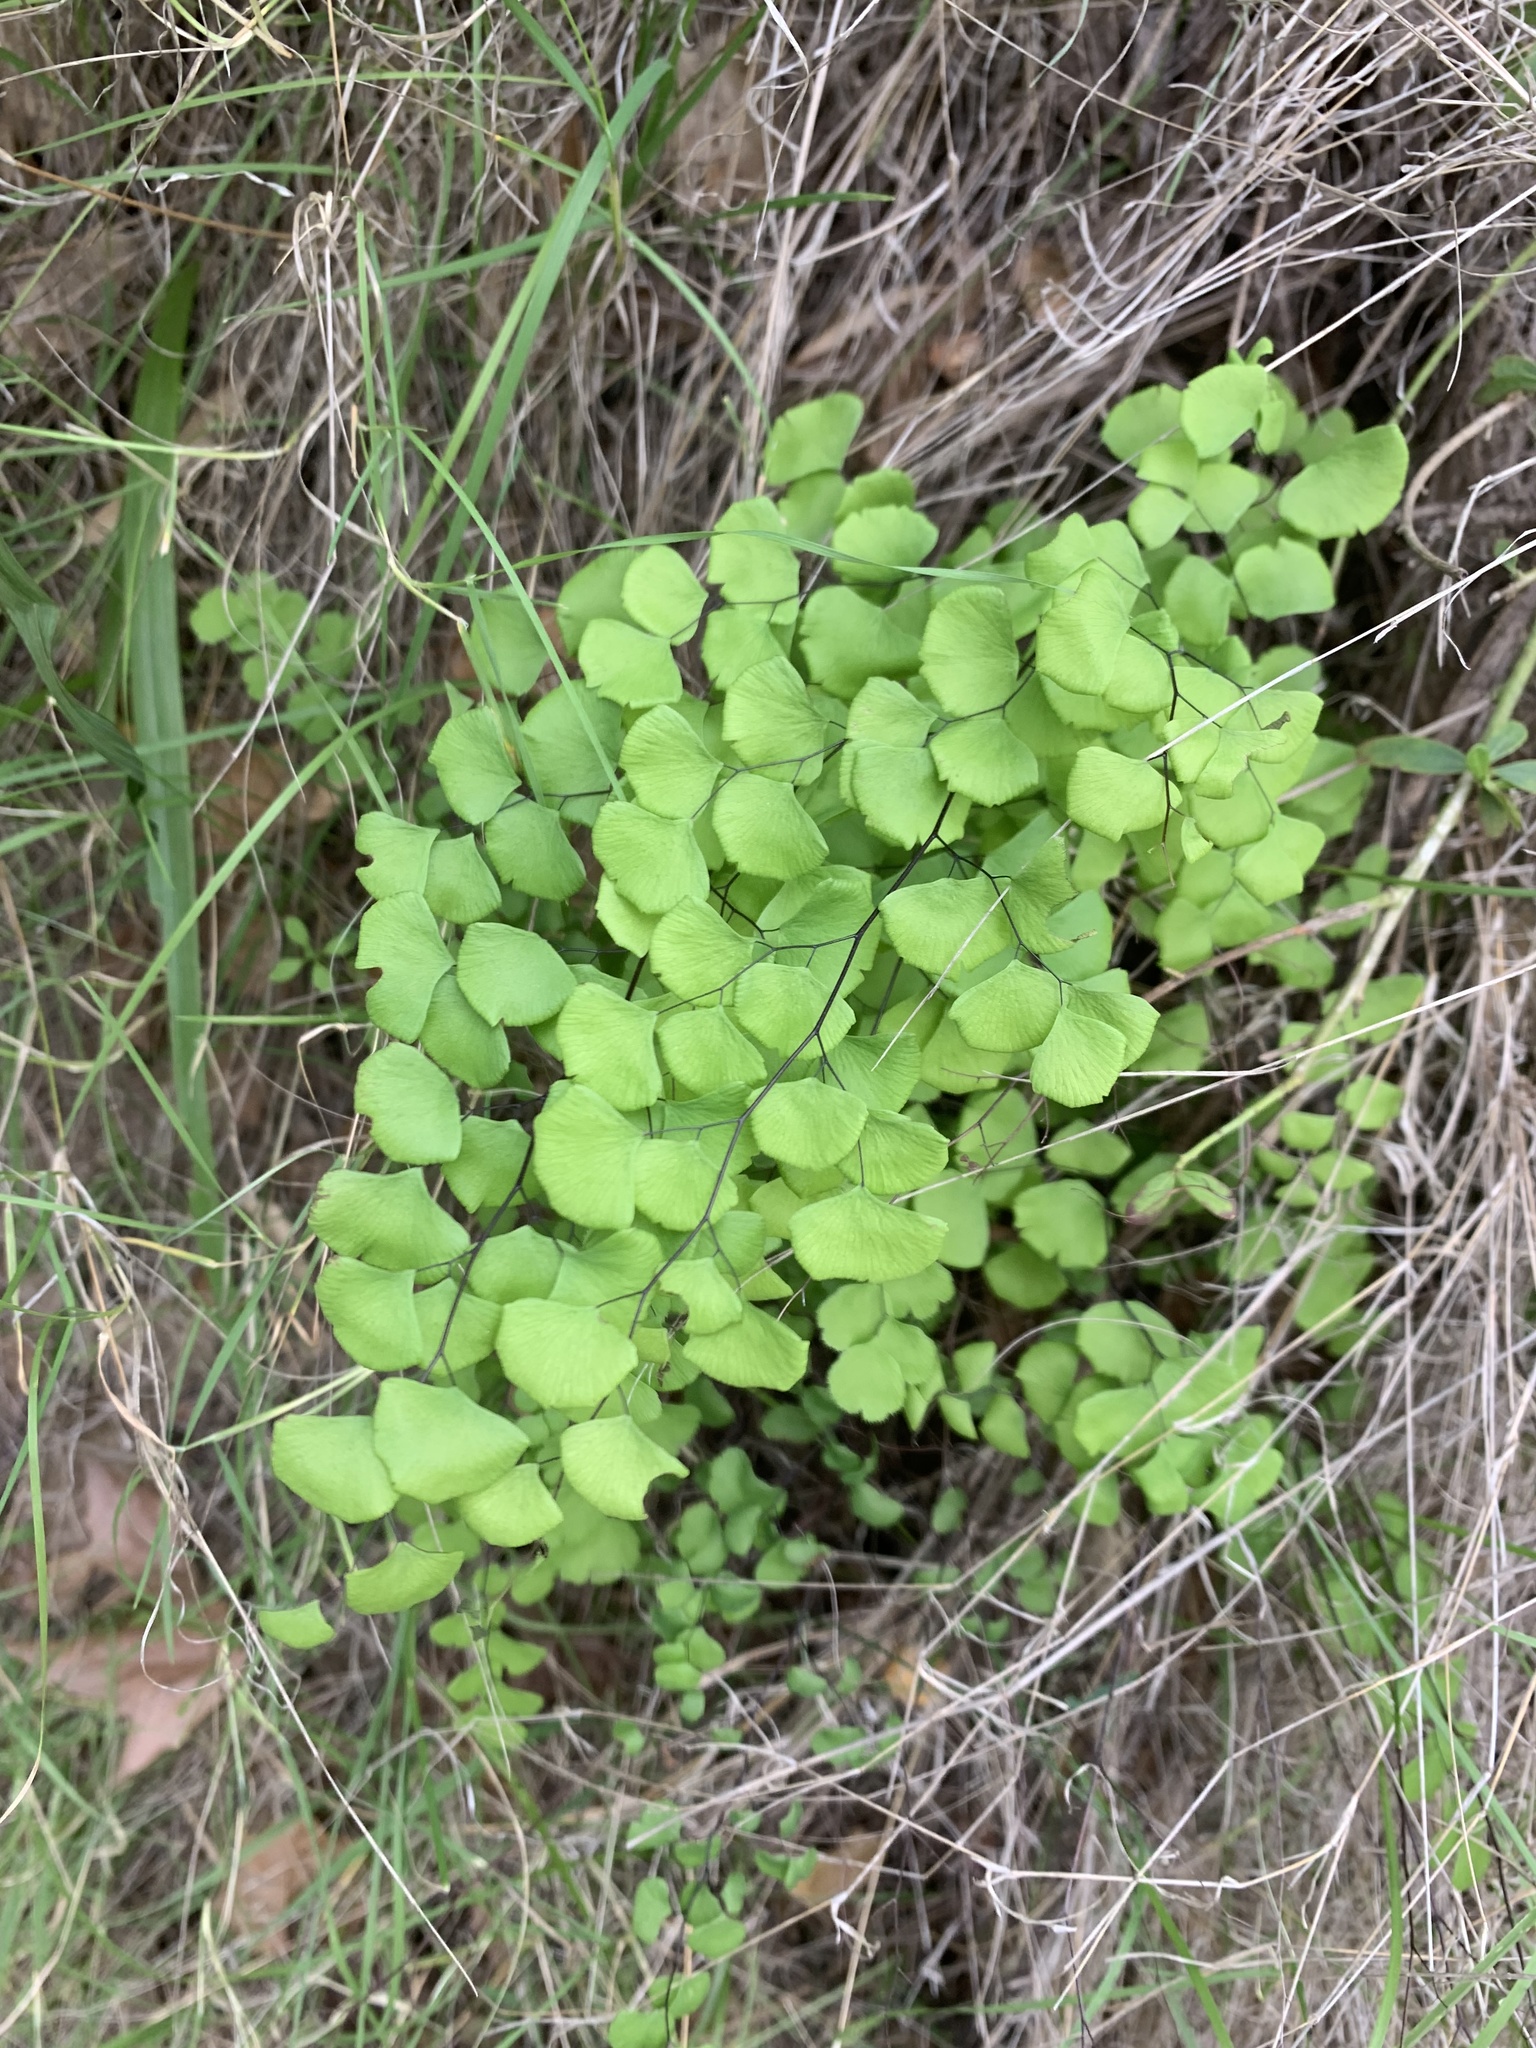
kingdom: Plantae
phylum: Tracheophyta
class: Polypodiopsida
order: Polypodiales
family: Pteridaceae
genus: Adiantum
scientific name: Adiantum jordanii
